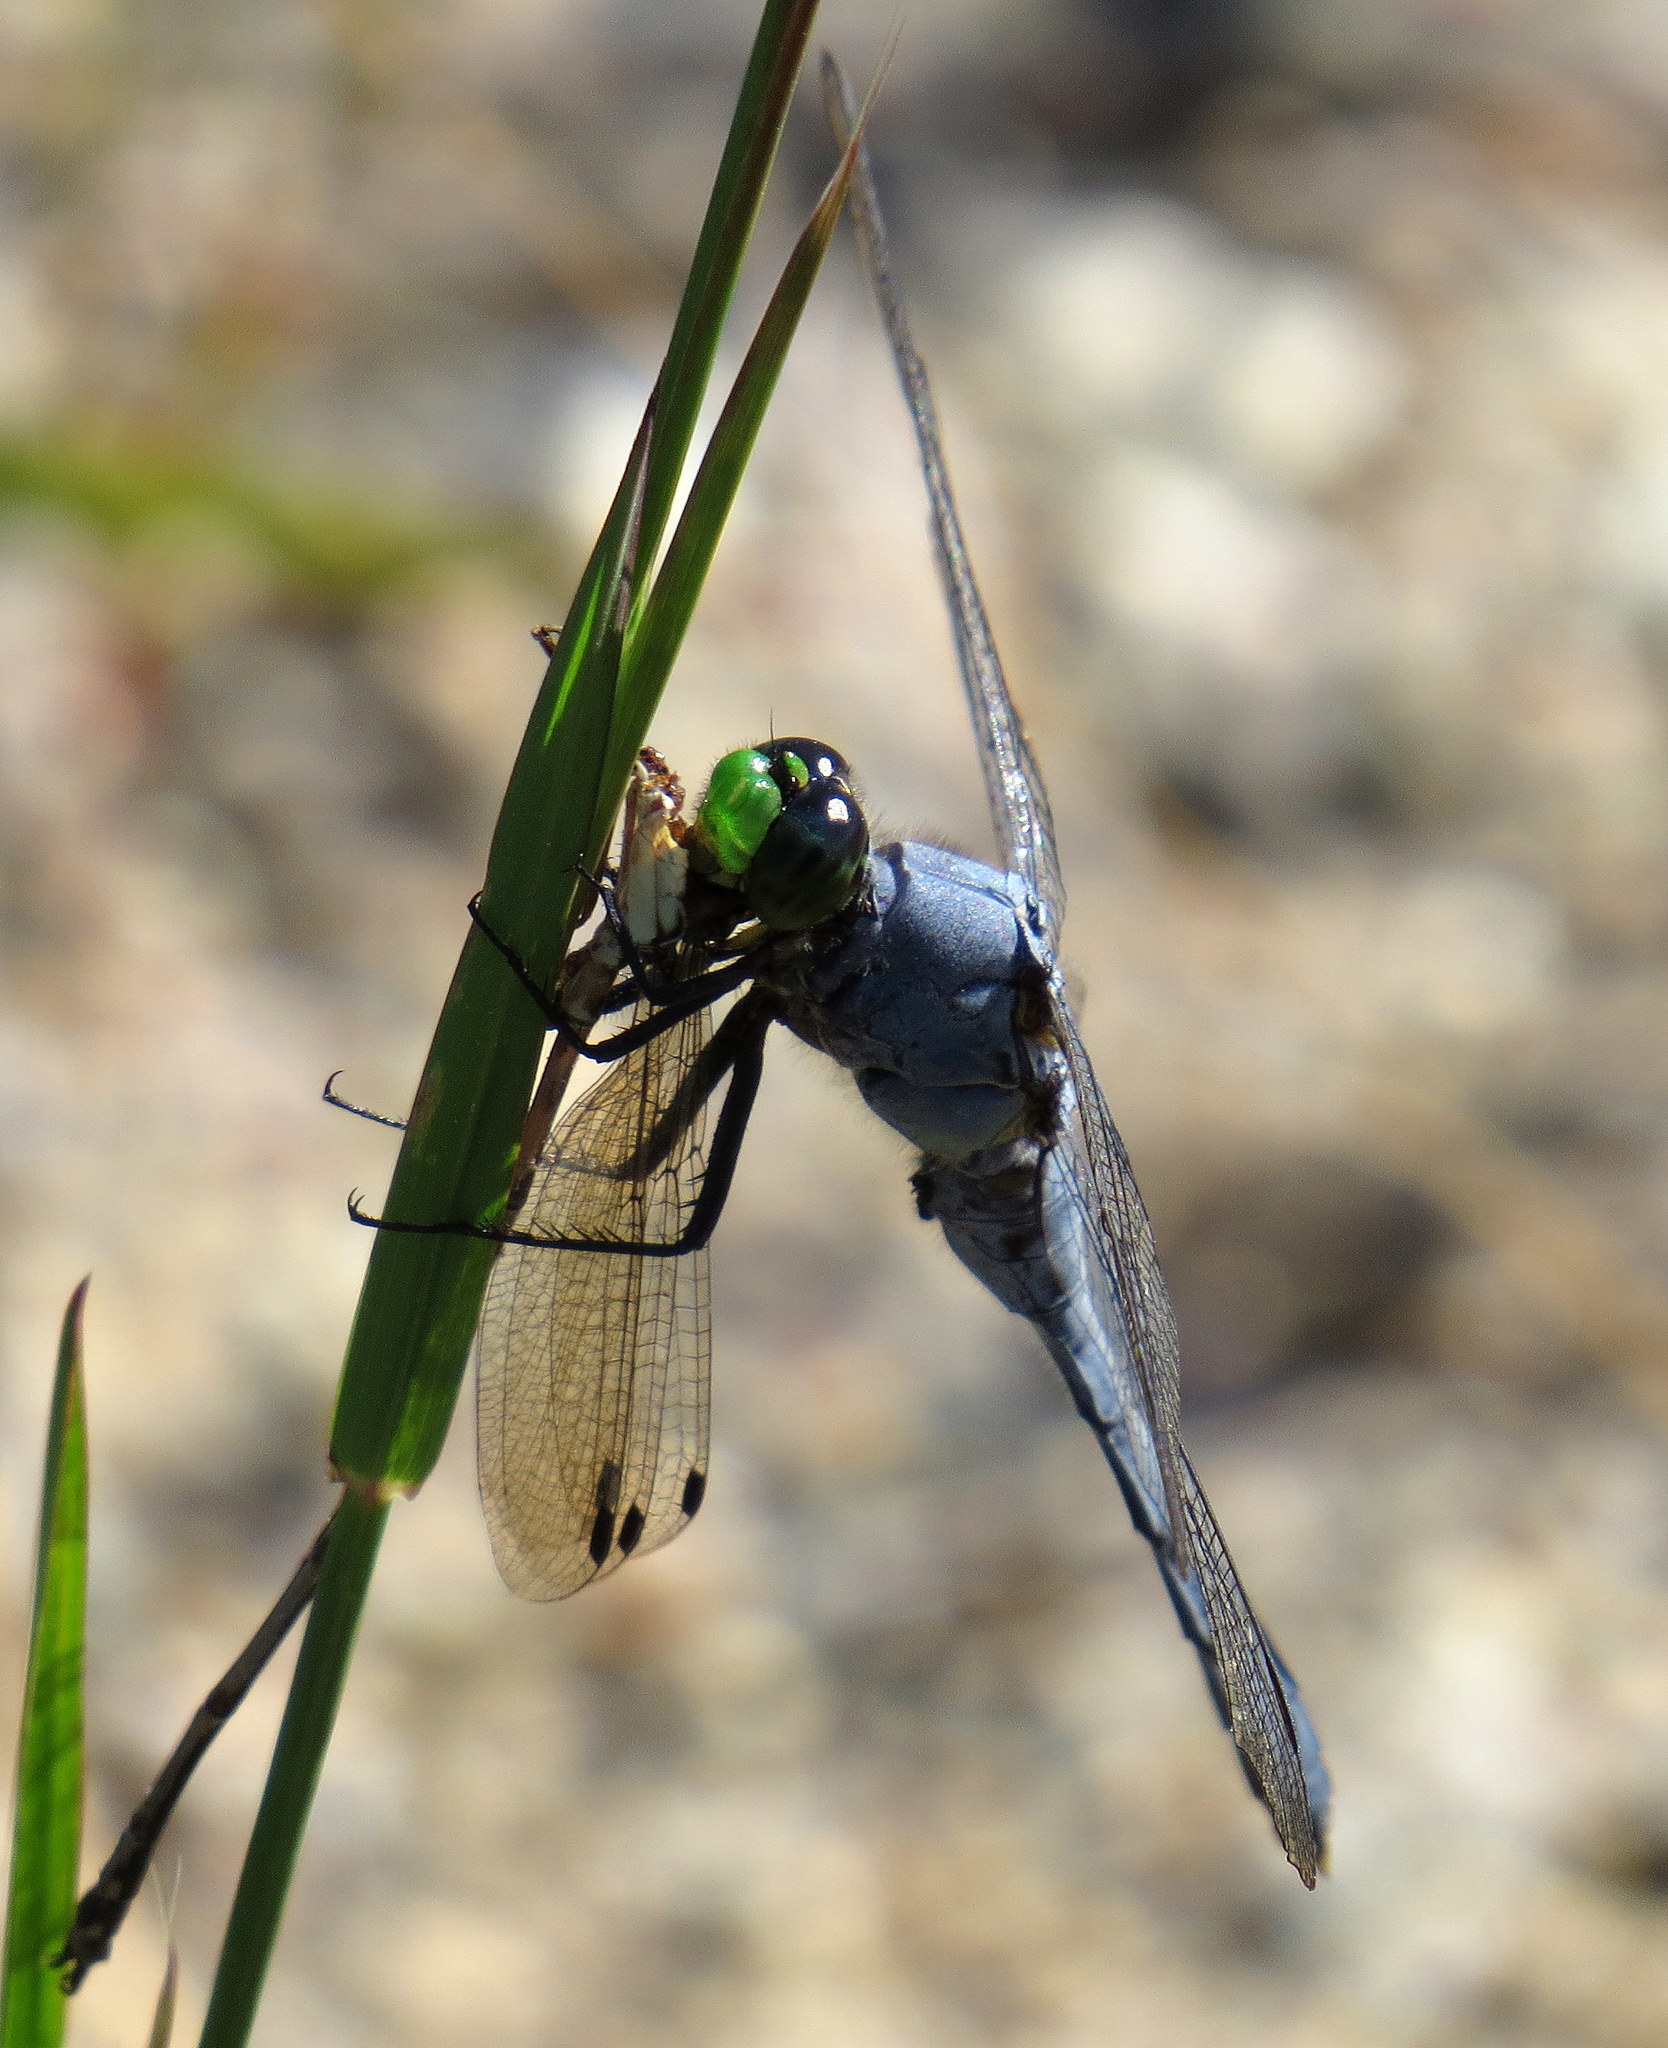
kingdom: Animalia
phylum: Arthropoda
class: Insecta
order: Odonata
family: Libellulidae
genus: Erythemis
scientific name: Erythemis simplicicollis
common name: Eastern pondhawk
